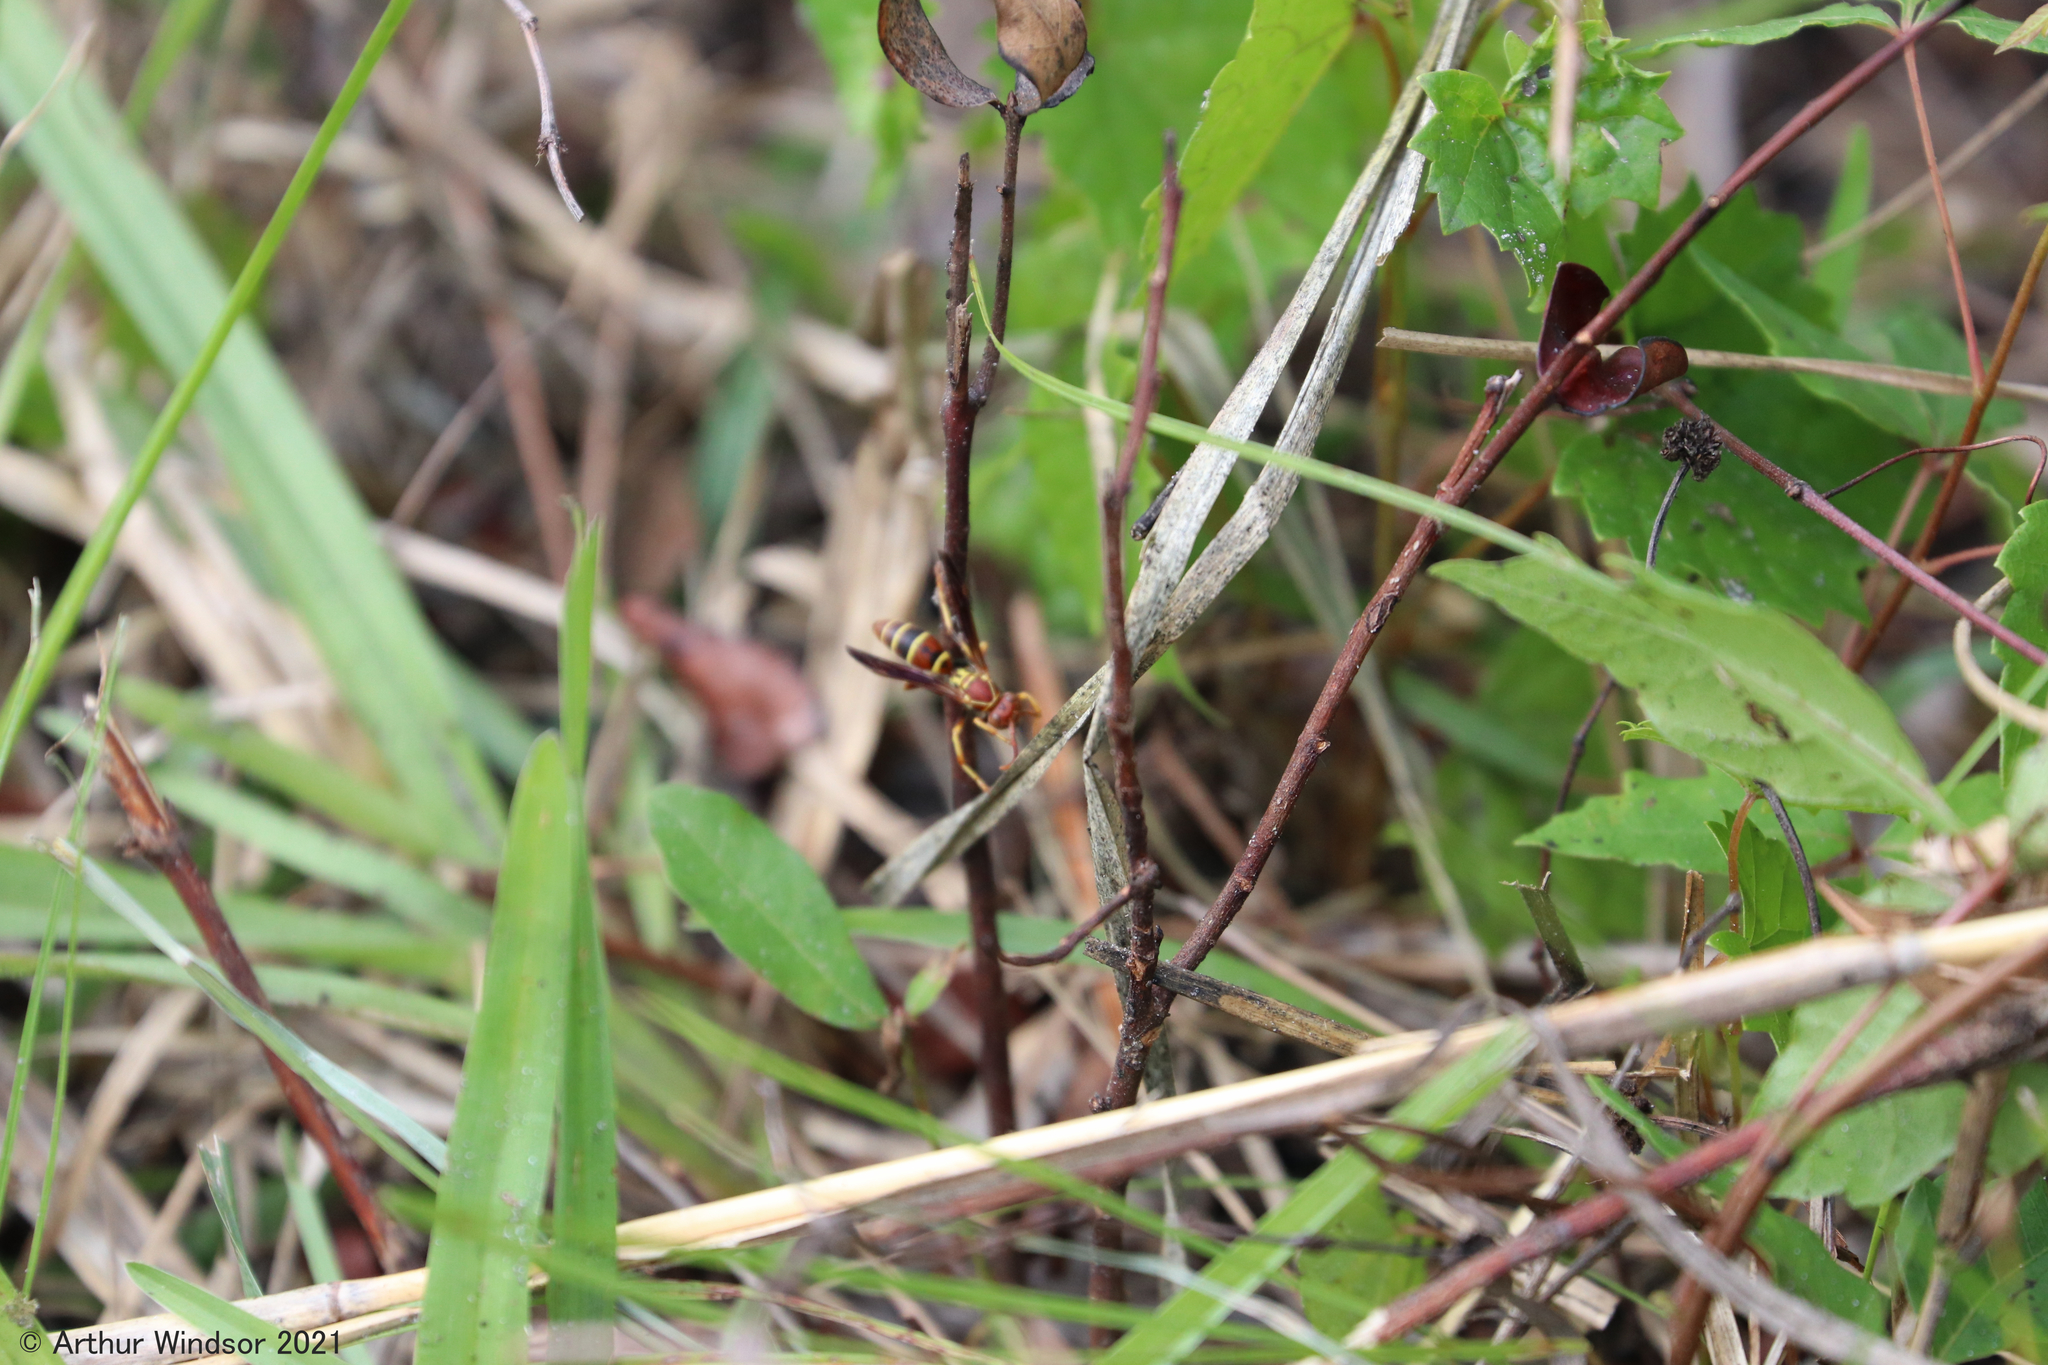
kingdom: Animalia
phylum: Arthropoda
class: Insecta
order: Hymenoptera
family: Eumenidae
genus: Polistes
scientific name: Polistes dorsalis
